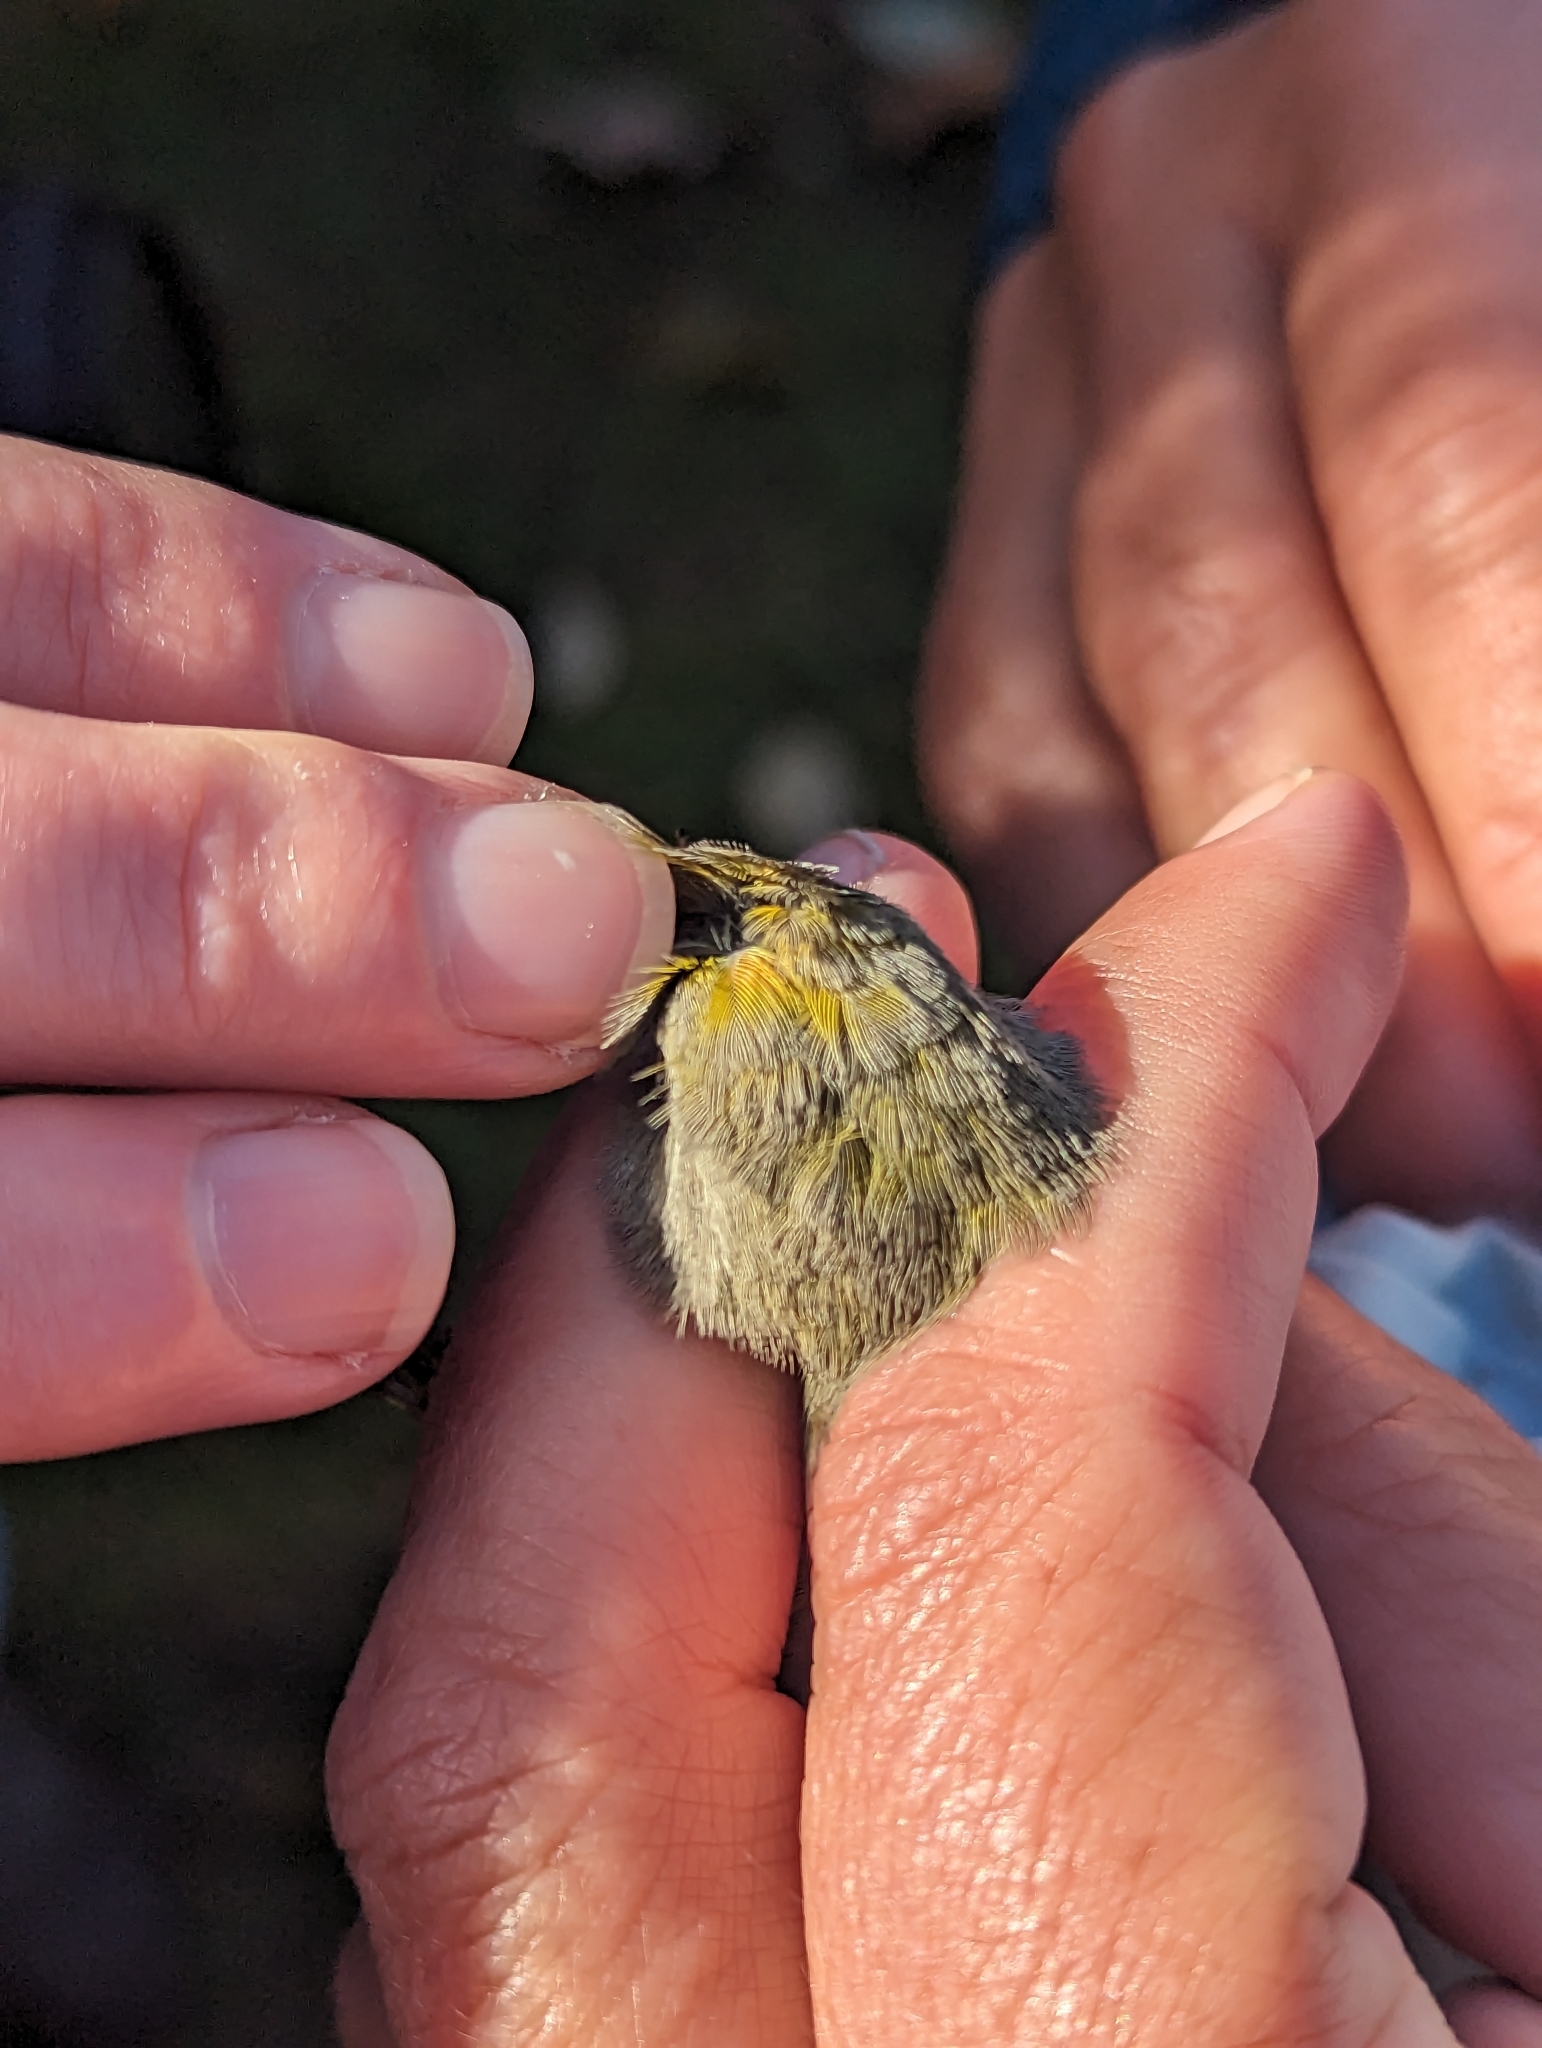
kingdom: Animalia
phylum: Chordata
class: Aves
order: Passeriformes
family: Parulidae
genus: Leiothlypis
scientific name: Leiothlypis celata
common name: Orange-crowned warbler
